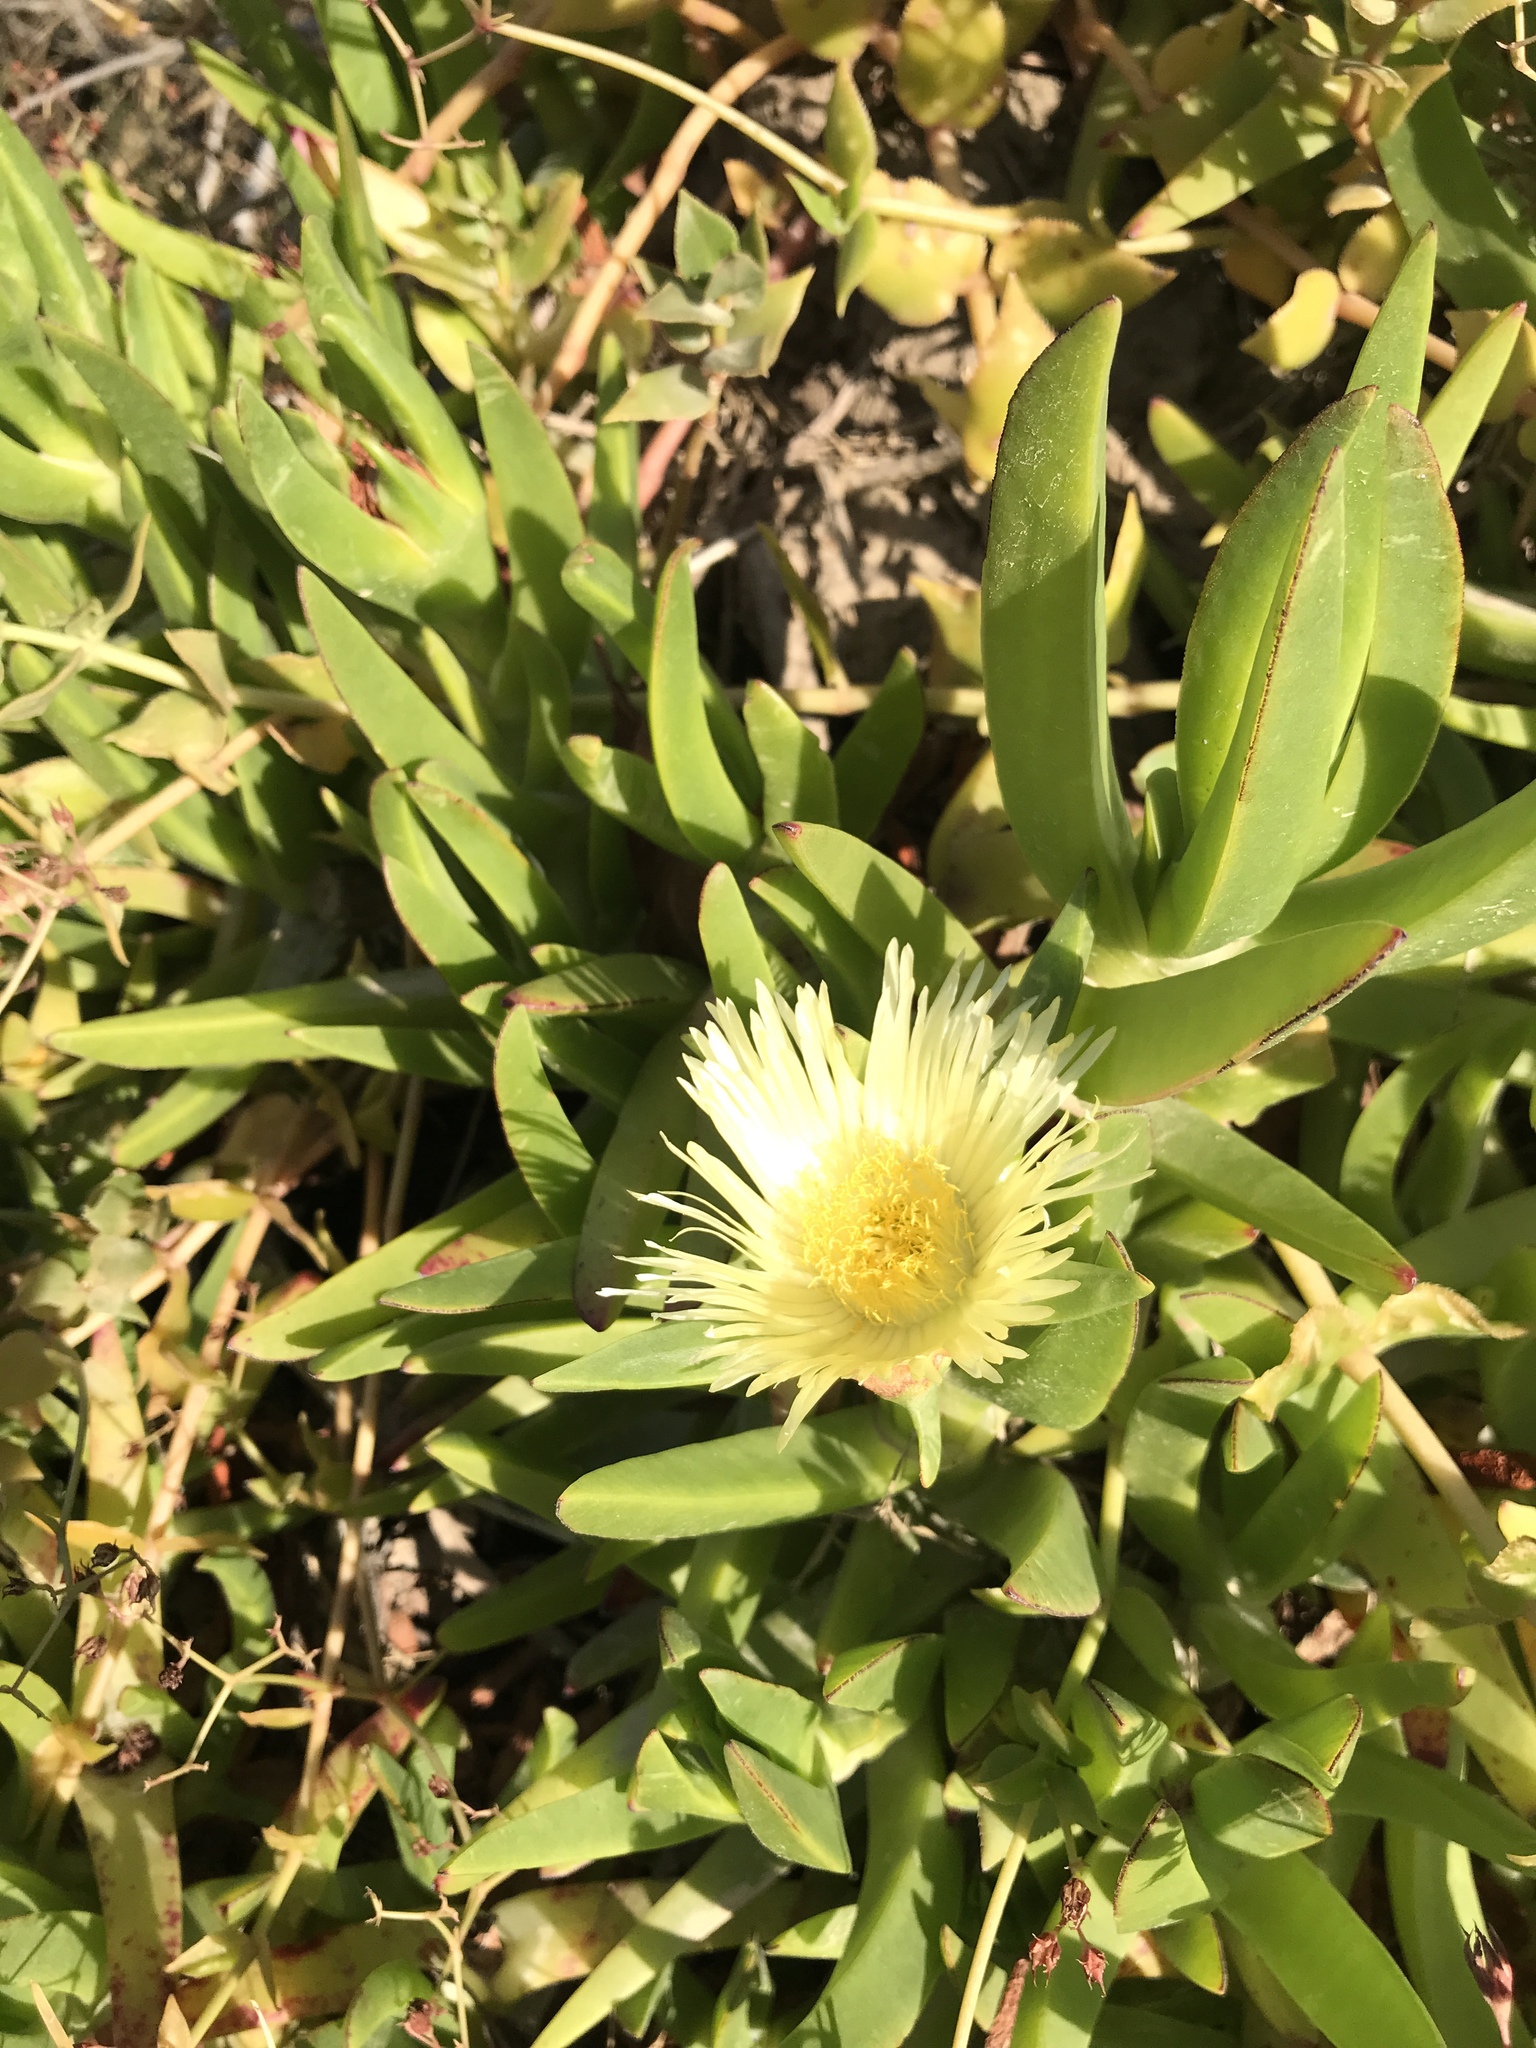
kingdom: Plantae
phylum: Tracheophyta
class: Magnoliopsida
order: Caryophyllales
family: Aizoaceae
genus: Carpobrotus
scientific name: Carpobrotus edulis
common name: Hottentot-fig
